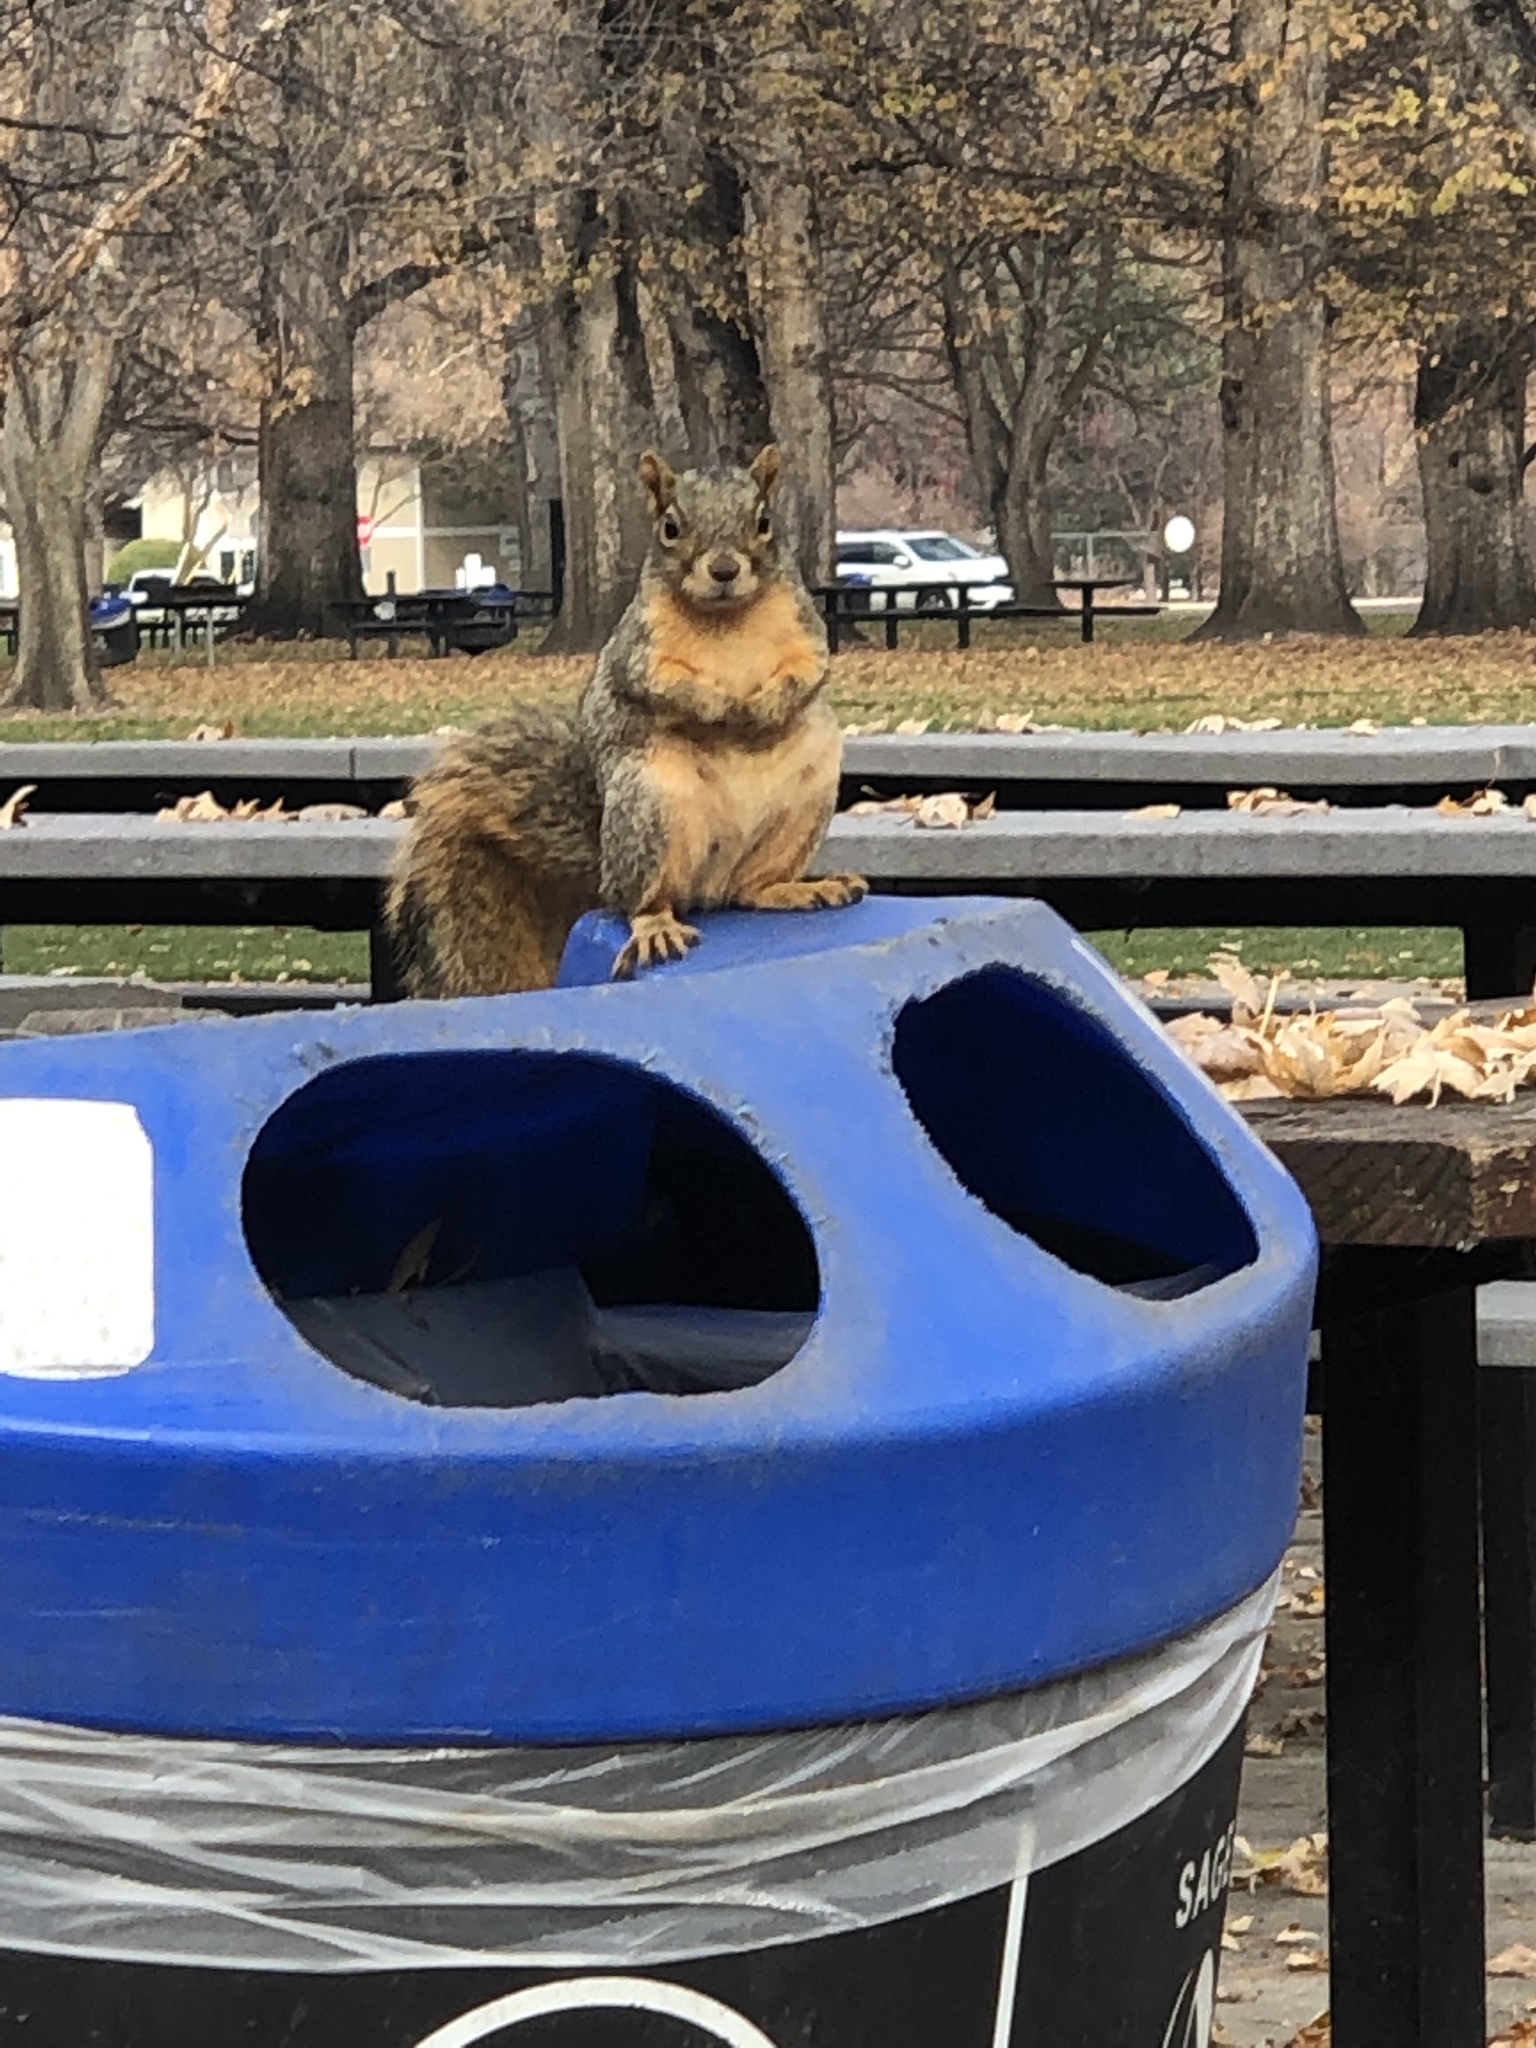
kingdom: Animalia
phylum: Chordata
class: Mammalia
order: Rodentia
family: Sciuridae
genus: Sciurus
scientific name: Sciurus niger
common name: Fox squirrel
